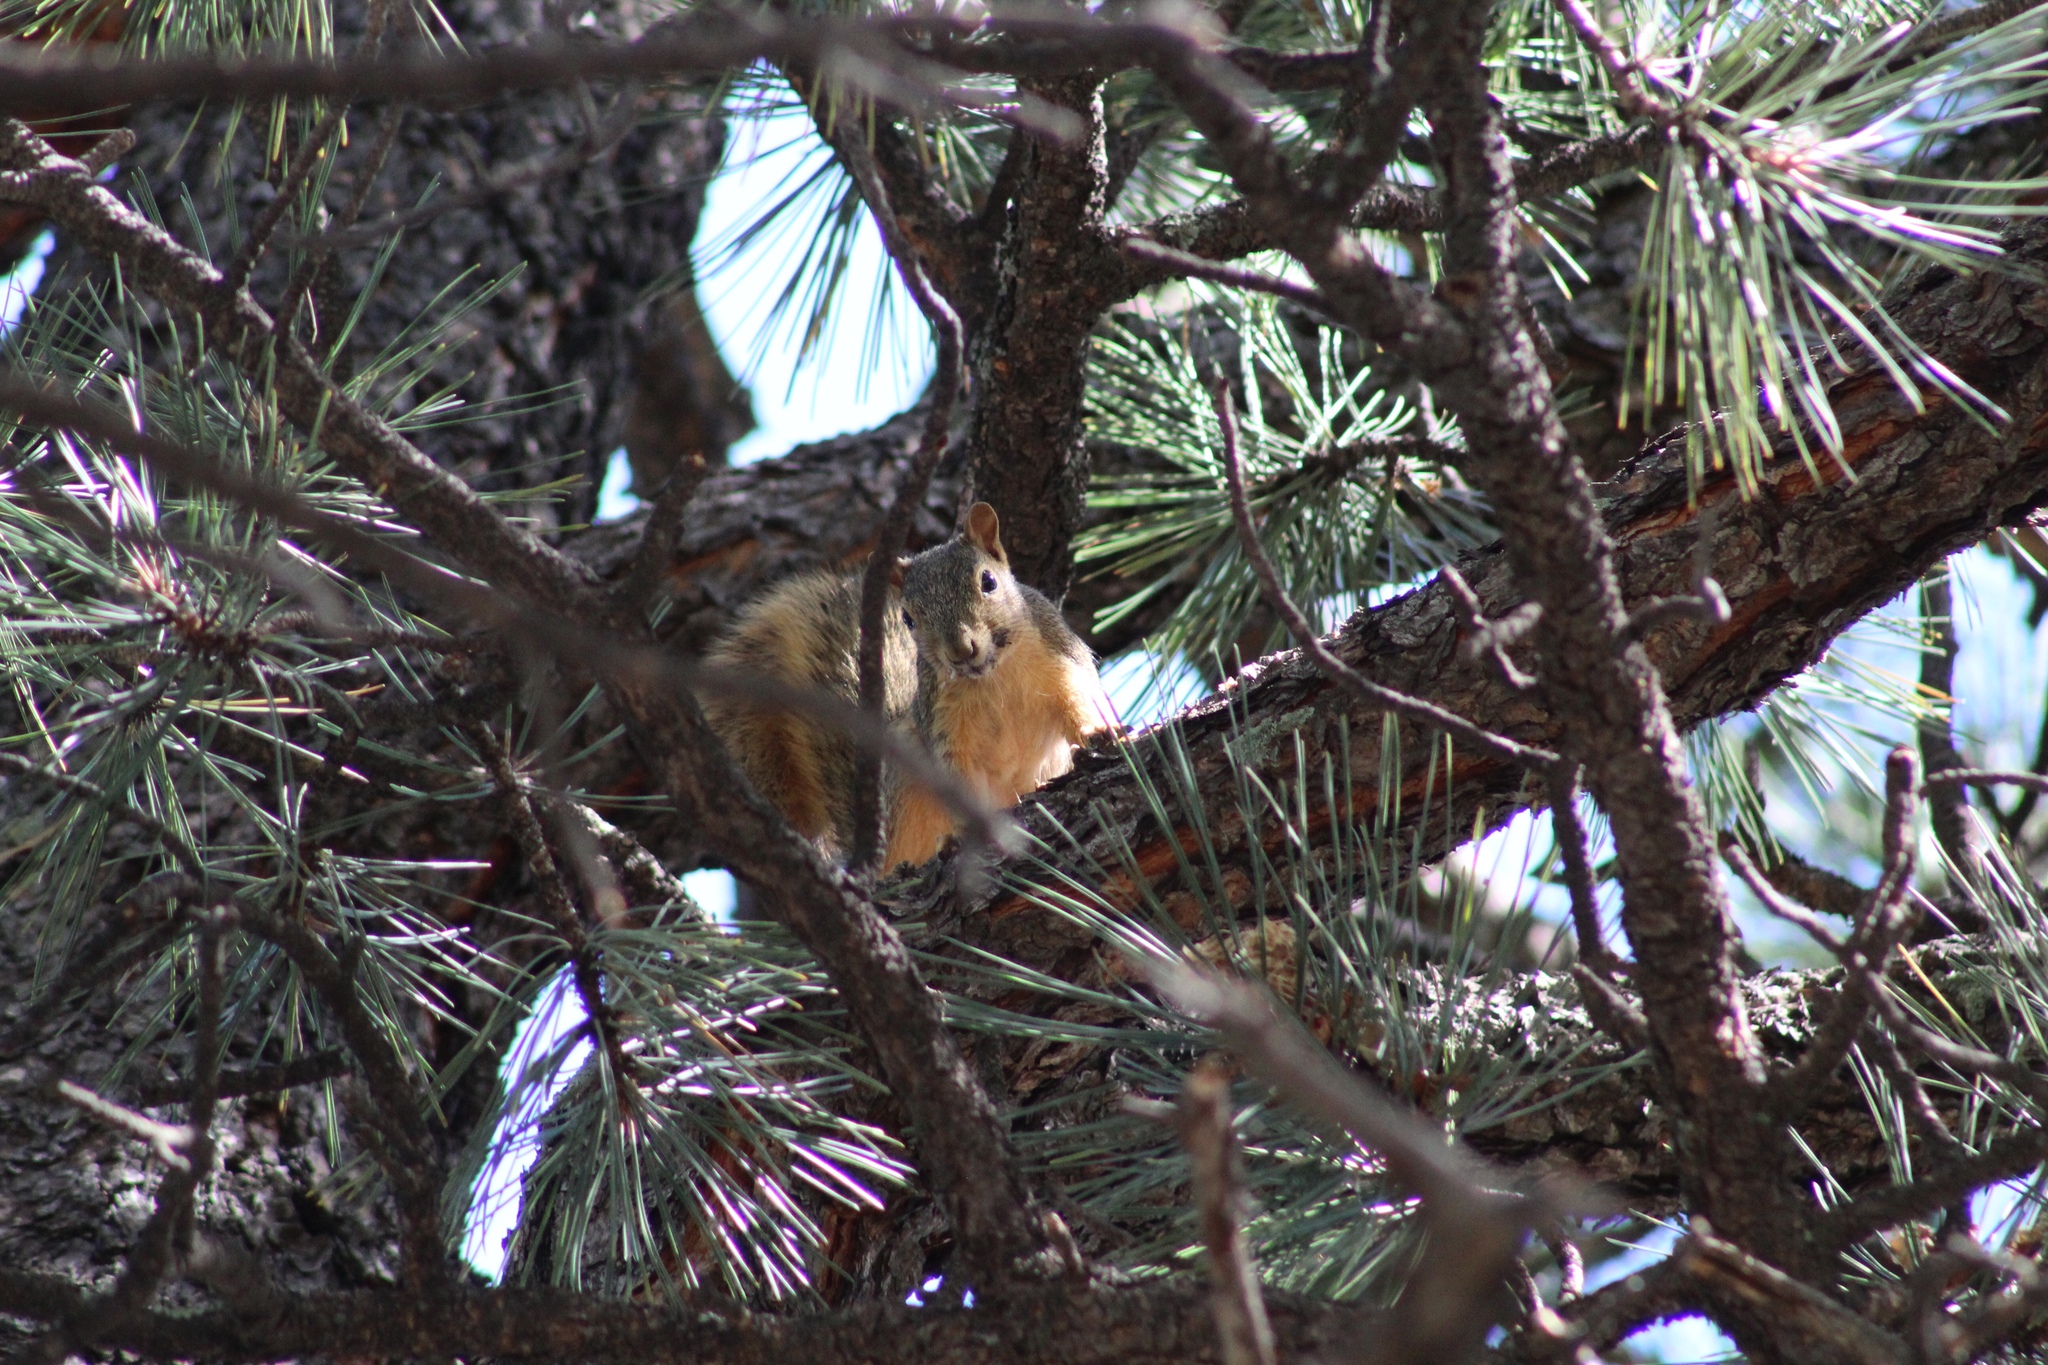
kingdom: Animalia
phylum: Chordata
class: Mammalia
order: Rodentia
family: Sciuridae
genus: Sciurus
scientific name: Sciurus niger
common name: Fox squirrel
